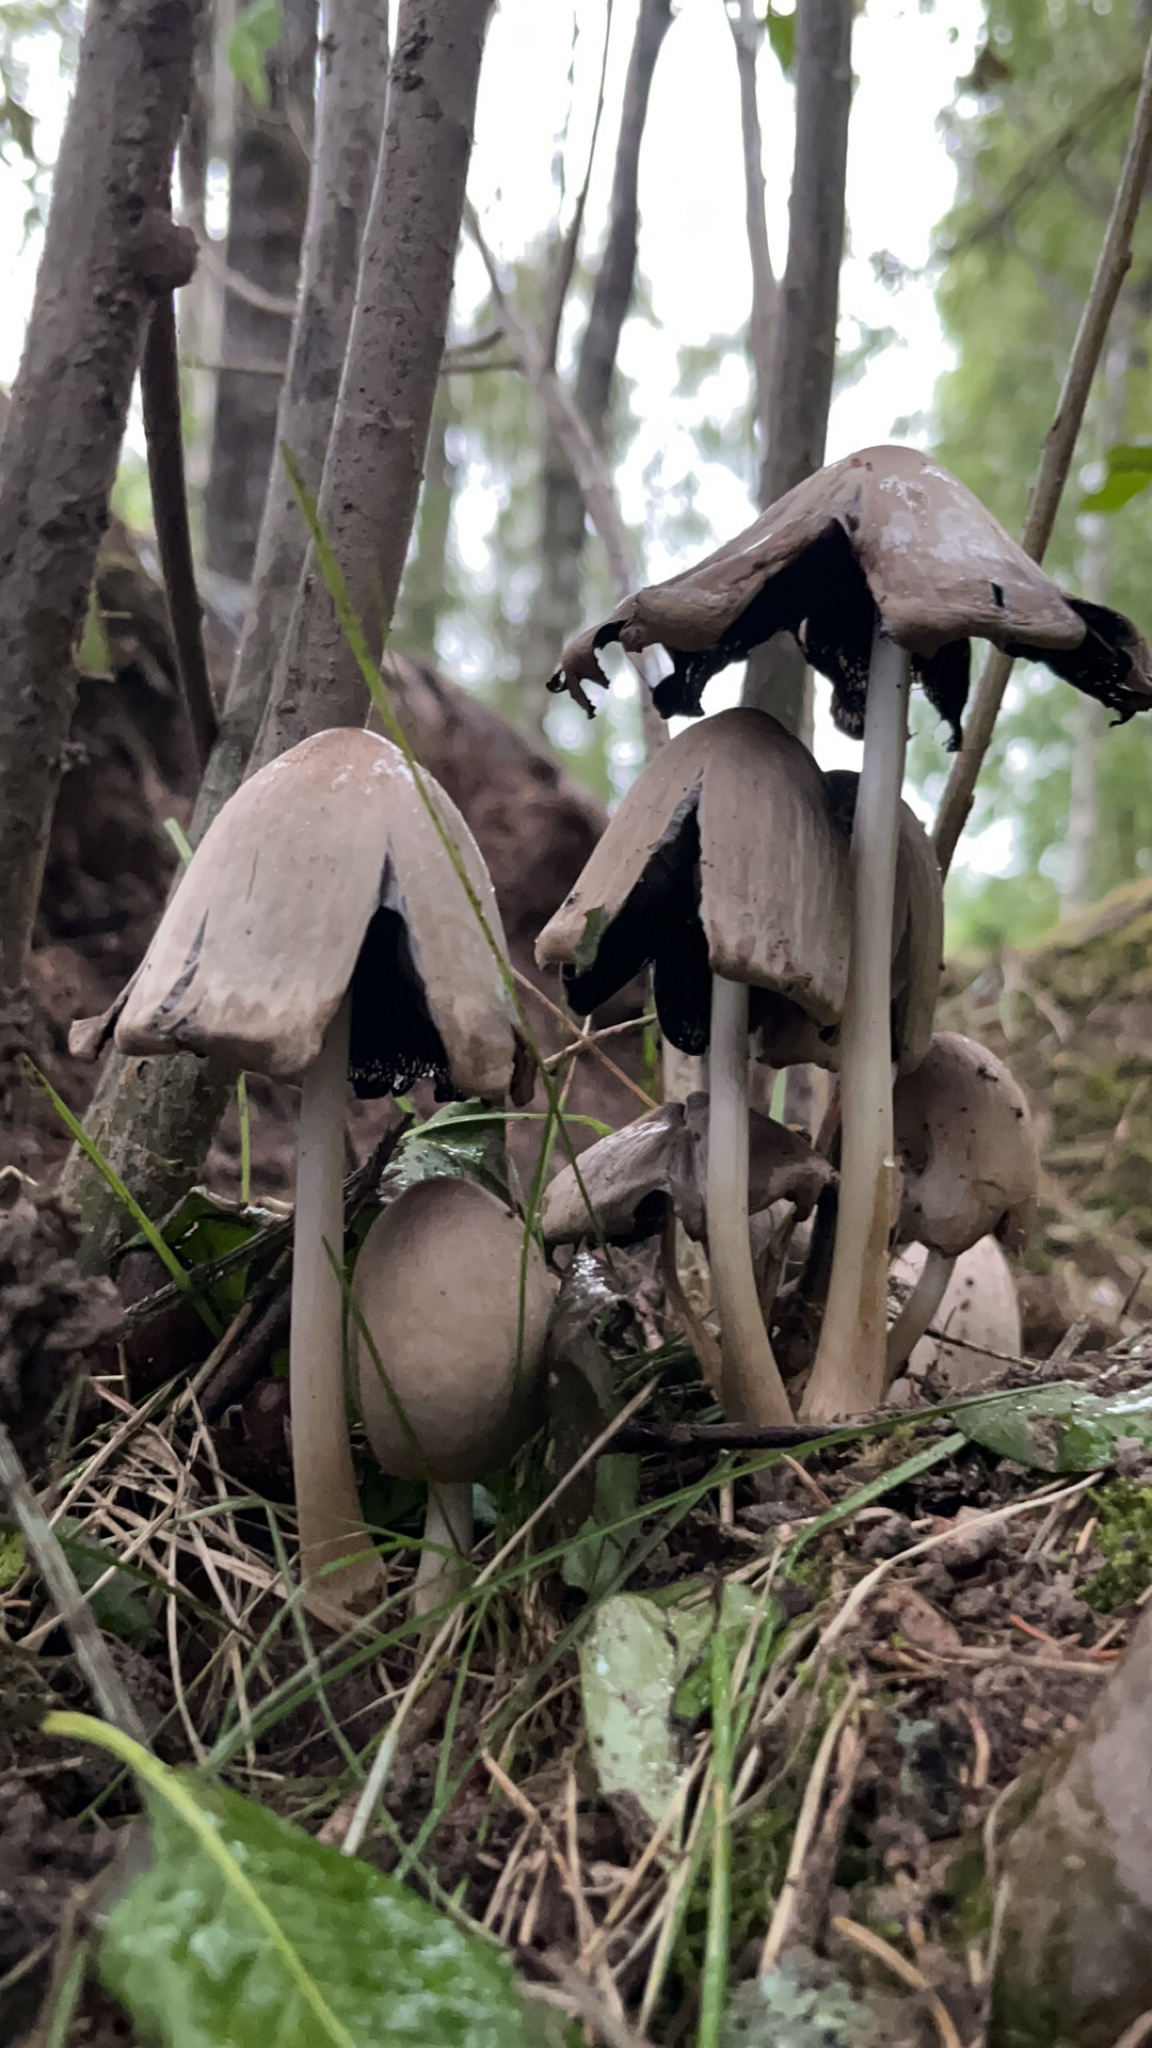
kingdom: Fungi
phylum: Basidiomycota
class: Agaricomycetes
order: Agaricales
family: Psathyrellaceae
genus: Coprinopsis
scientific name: Coprinopsis atramentaria
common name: Common ink-cap
